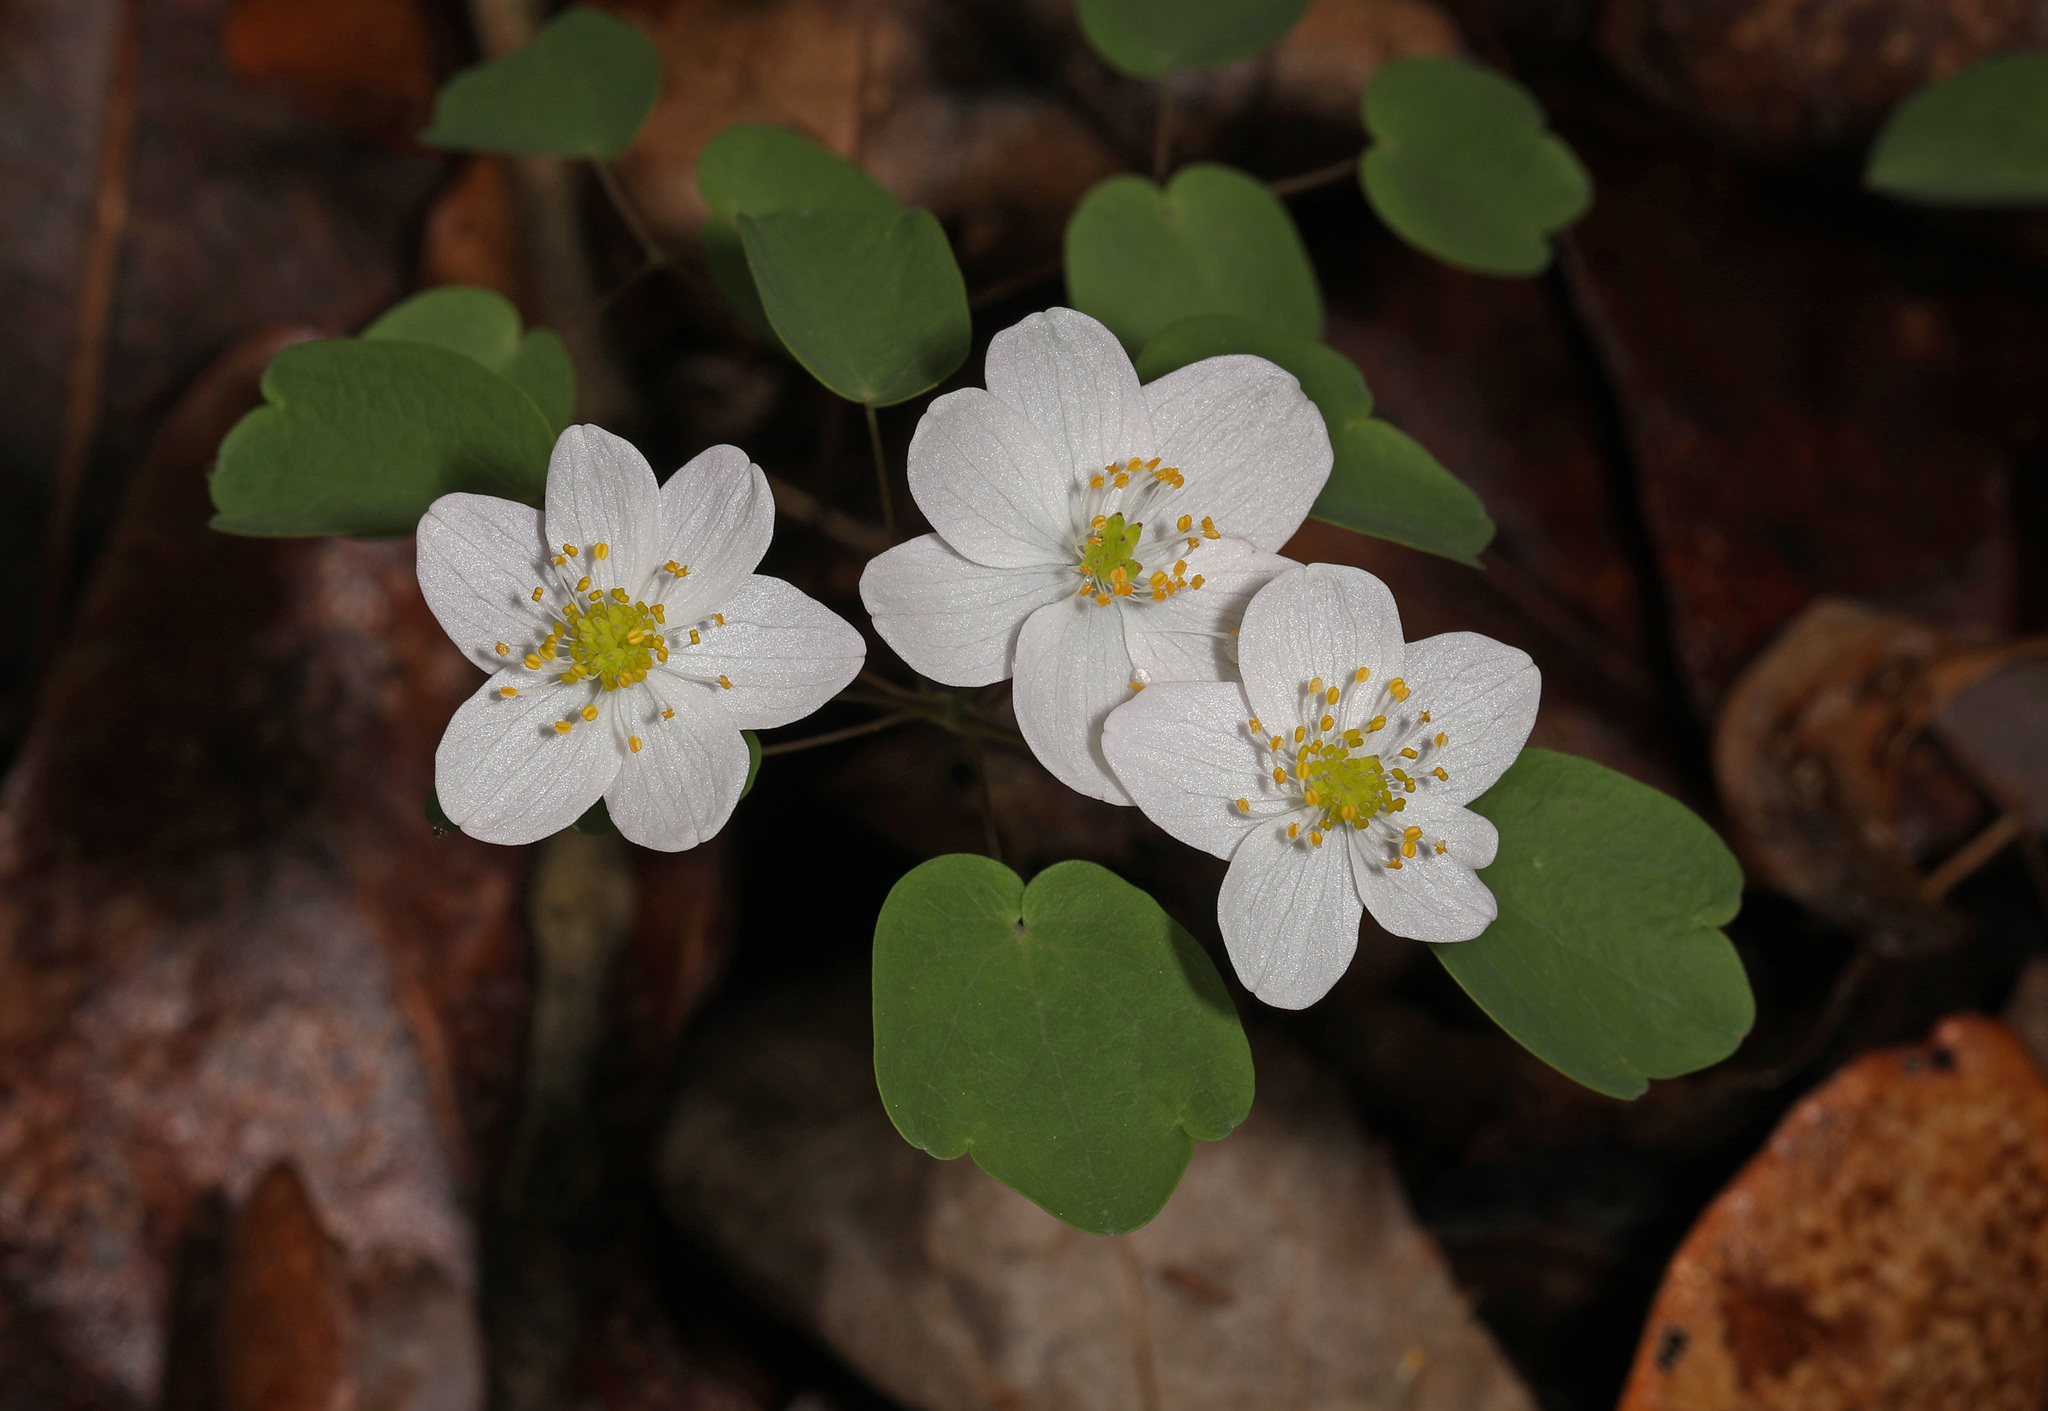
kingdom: Plantae
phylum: Tracheophyta
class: Magnoliopsida
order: Ranunculales
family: Ranunculaceae
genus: Thalictrum
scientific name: Thalictrum thalictroides
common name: Rue-anemone
